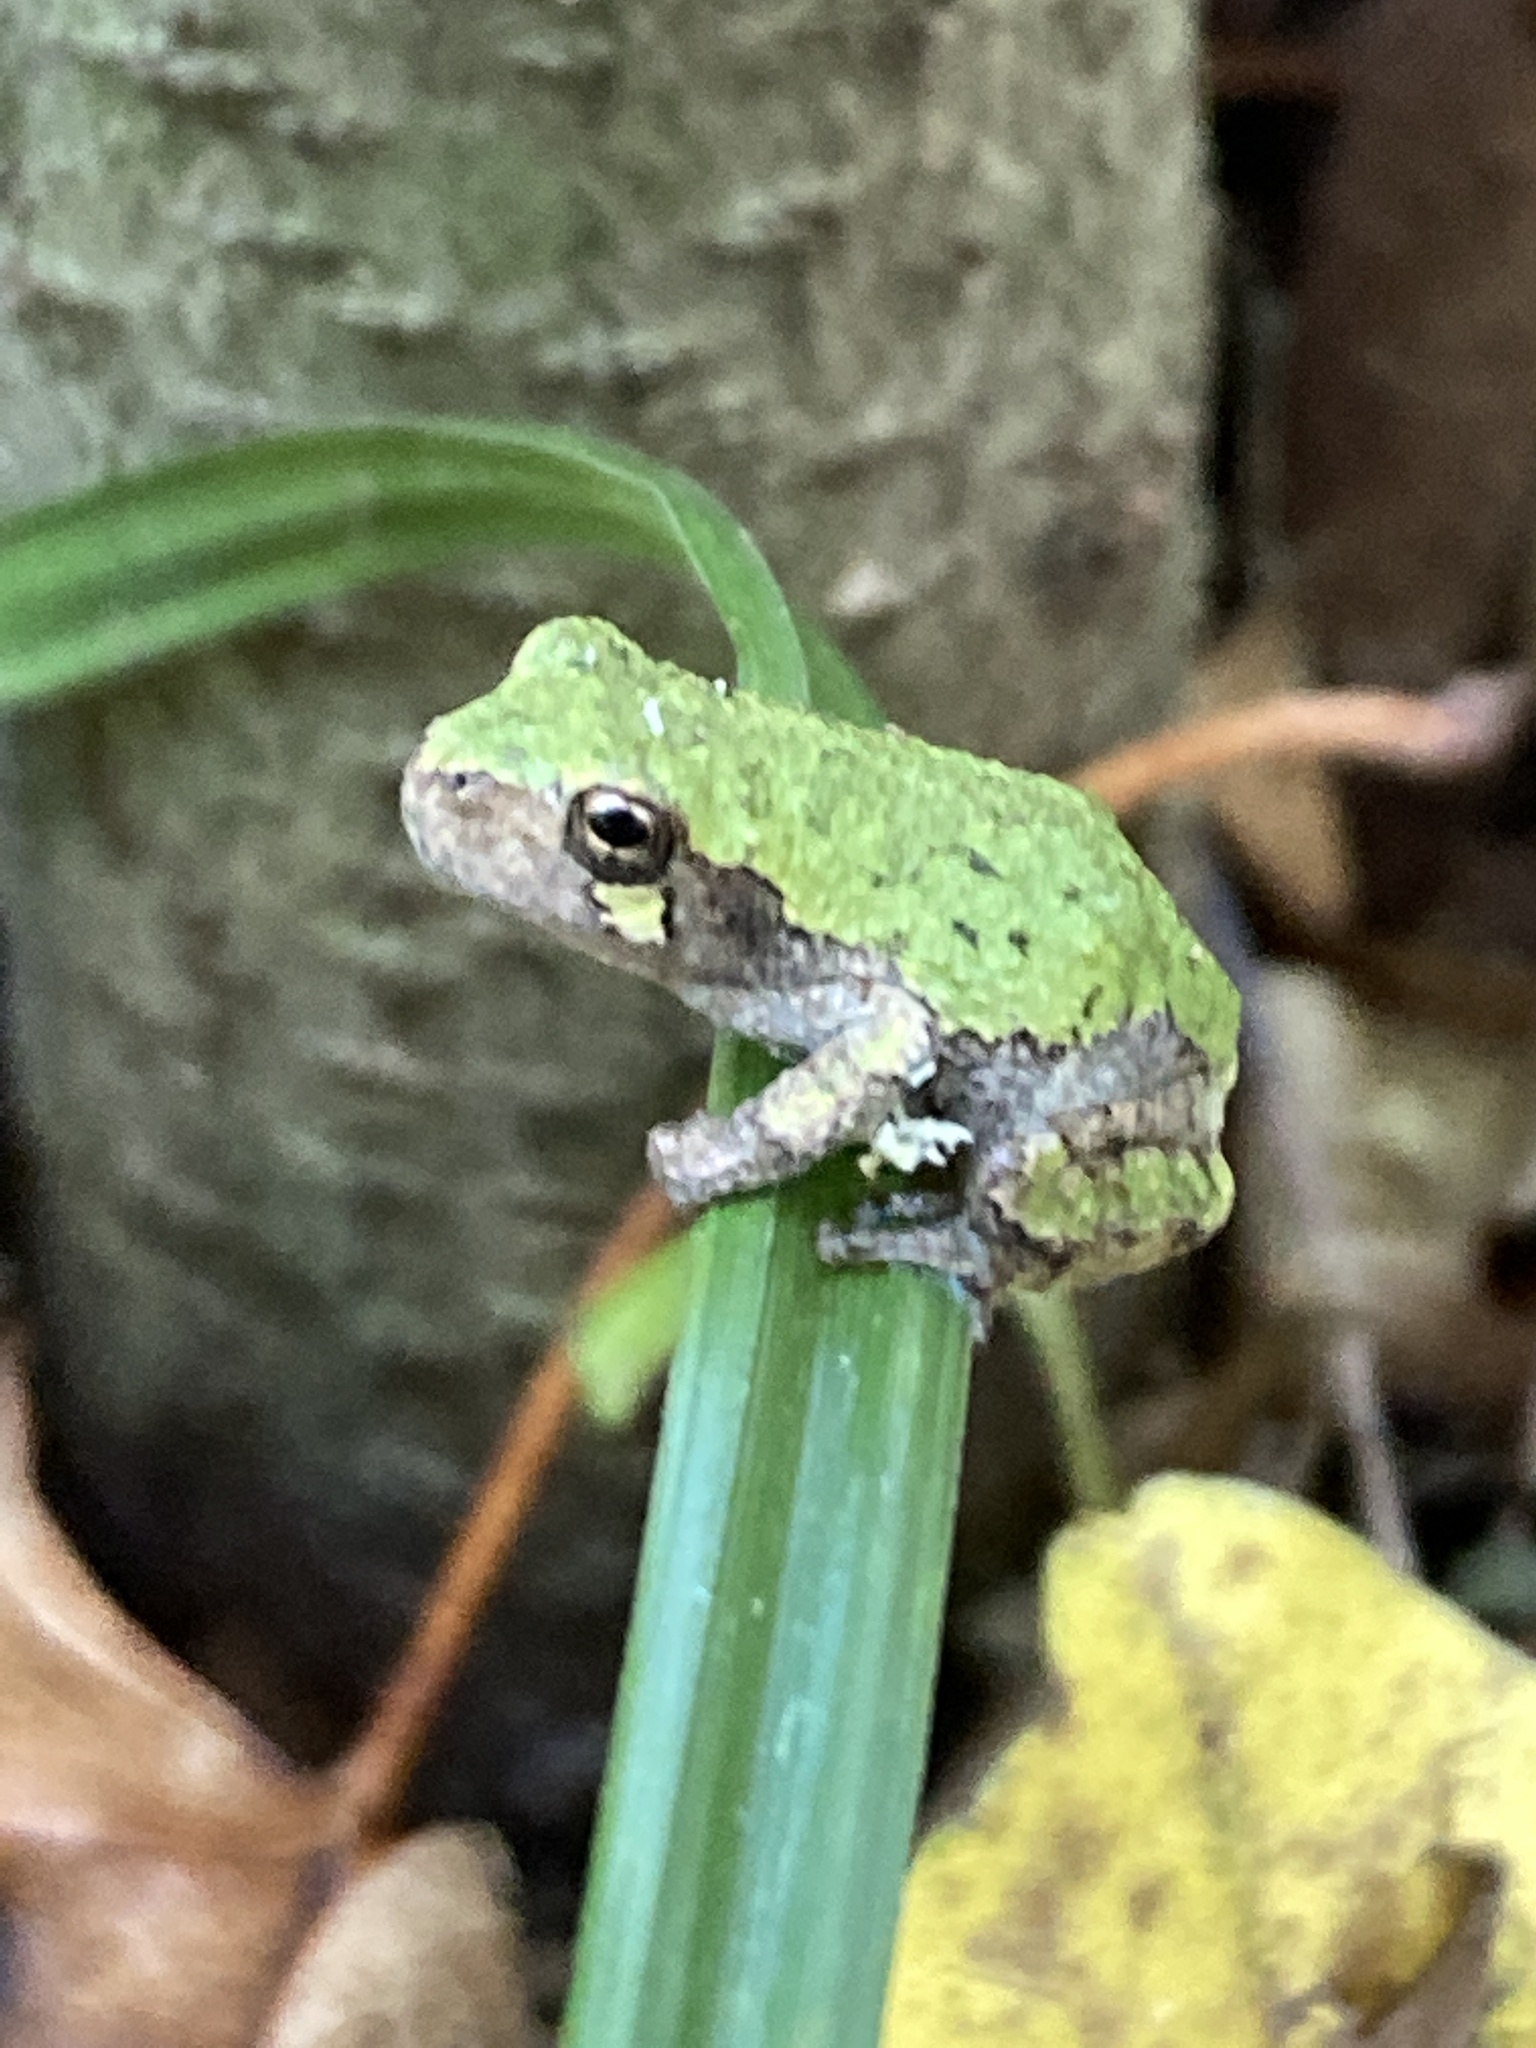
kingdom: Animalia
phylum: Chordata
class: Amphibia
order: Anura
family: Hylidae
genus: Dryophytes
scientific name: Dryophytes versicolor
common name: Gray treefrog
